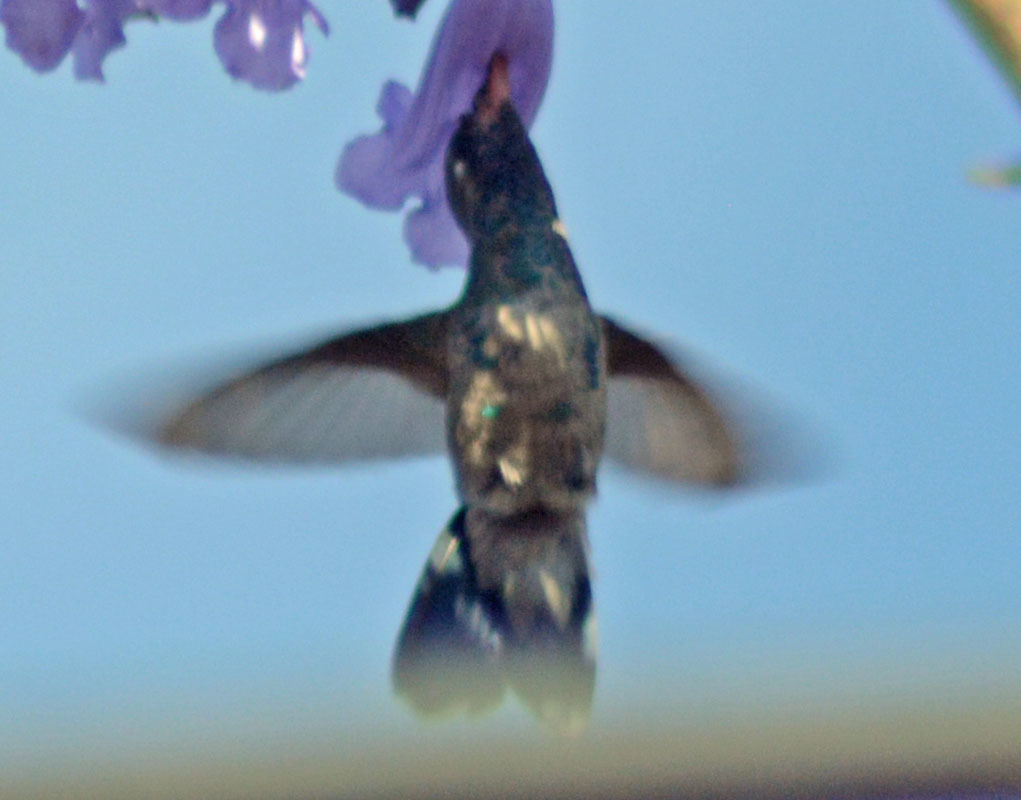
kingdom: Animalia
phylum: Chordata
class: Aves
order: Apodiformes
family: Trochilidae
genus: Cynanthus
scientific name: Cynanthus latirostris
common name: Broad-billed hummingbird
